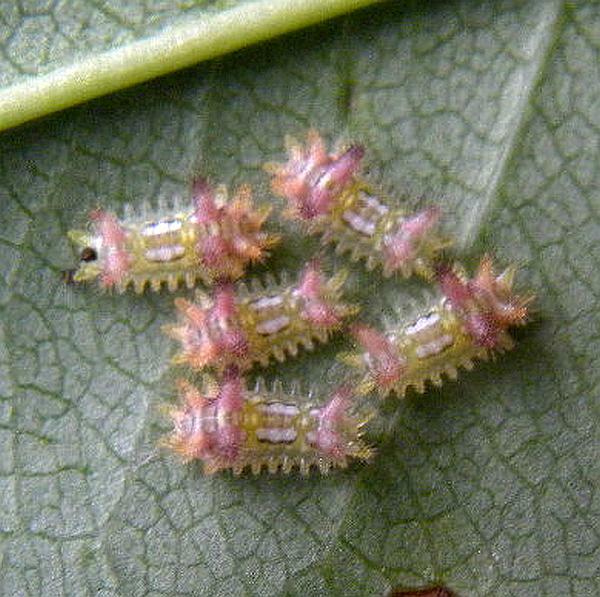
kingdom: Animalia
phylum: Arthropoda
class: Insecta
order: Lepidoptera
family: Limacodidae
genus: Acharia
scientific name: Acharia stimulea
